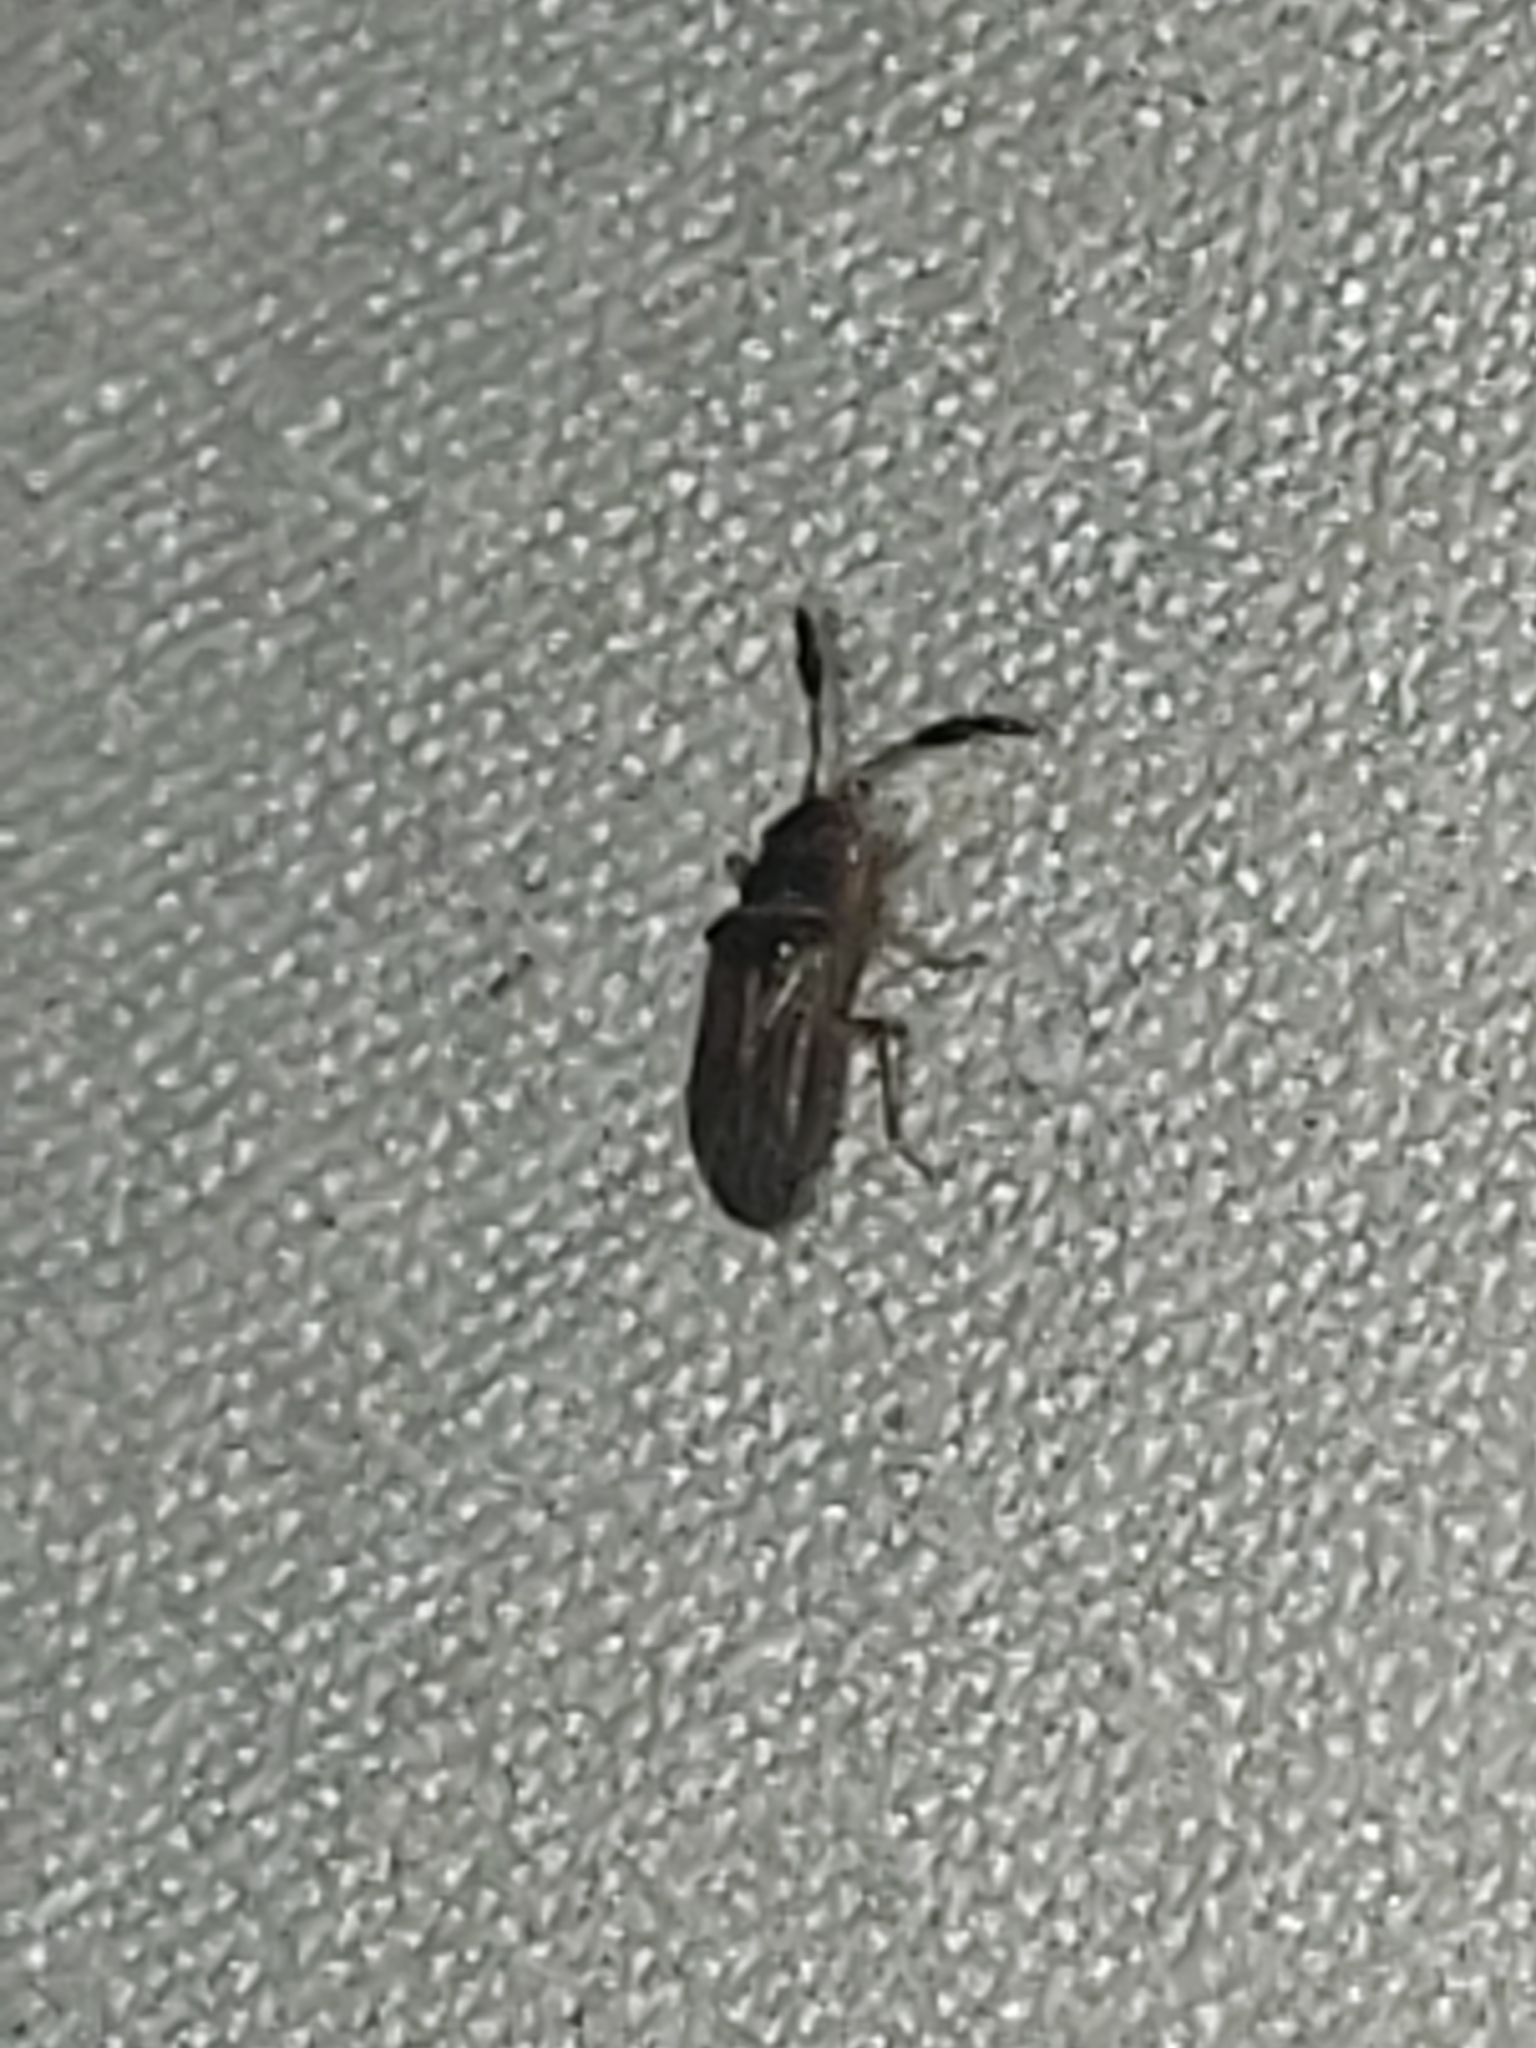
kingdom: Animalia
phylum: Arthropoda
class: Insecta
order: Hemiptera
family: Rhyparochromidae
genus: Ptochiomera
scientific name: Ptochiomera nodosa
